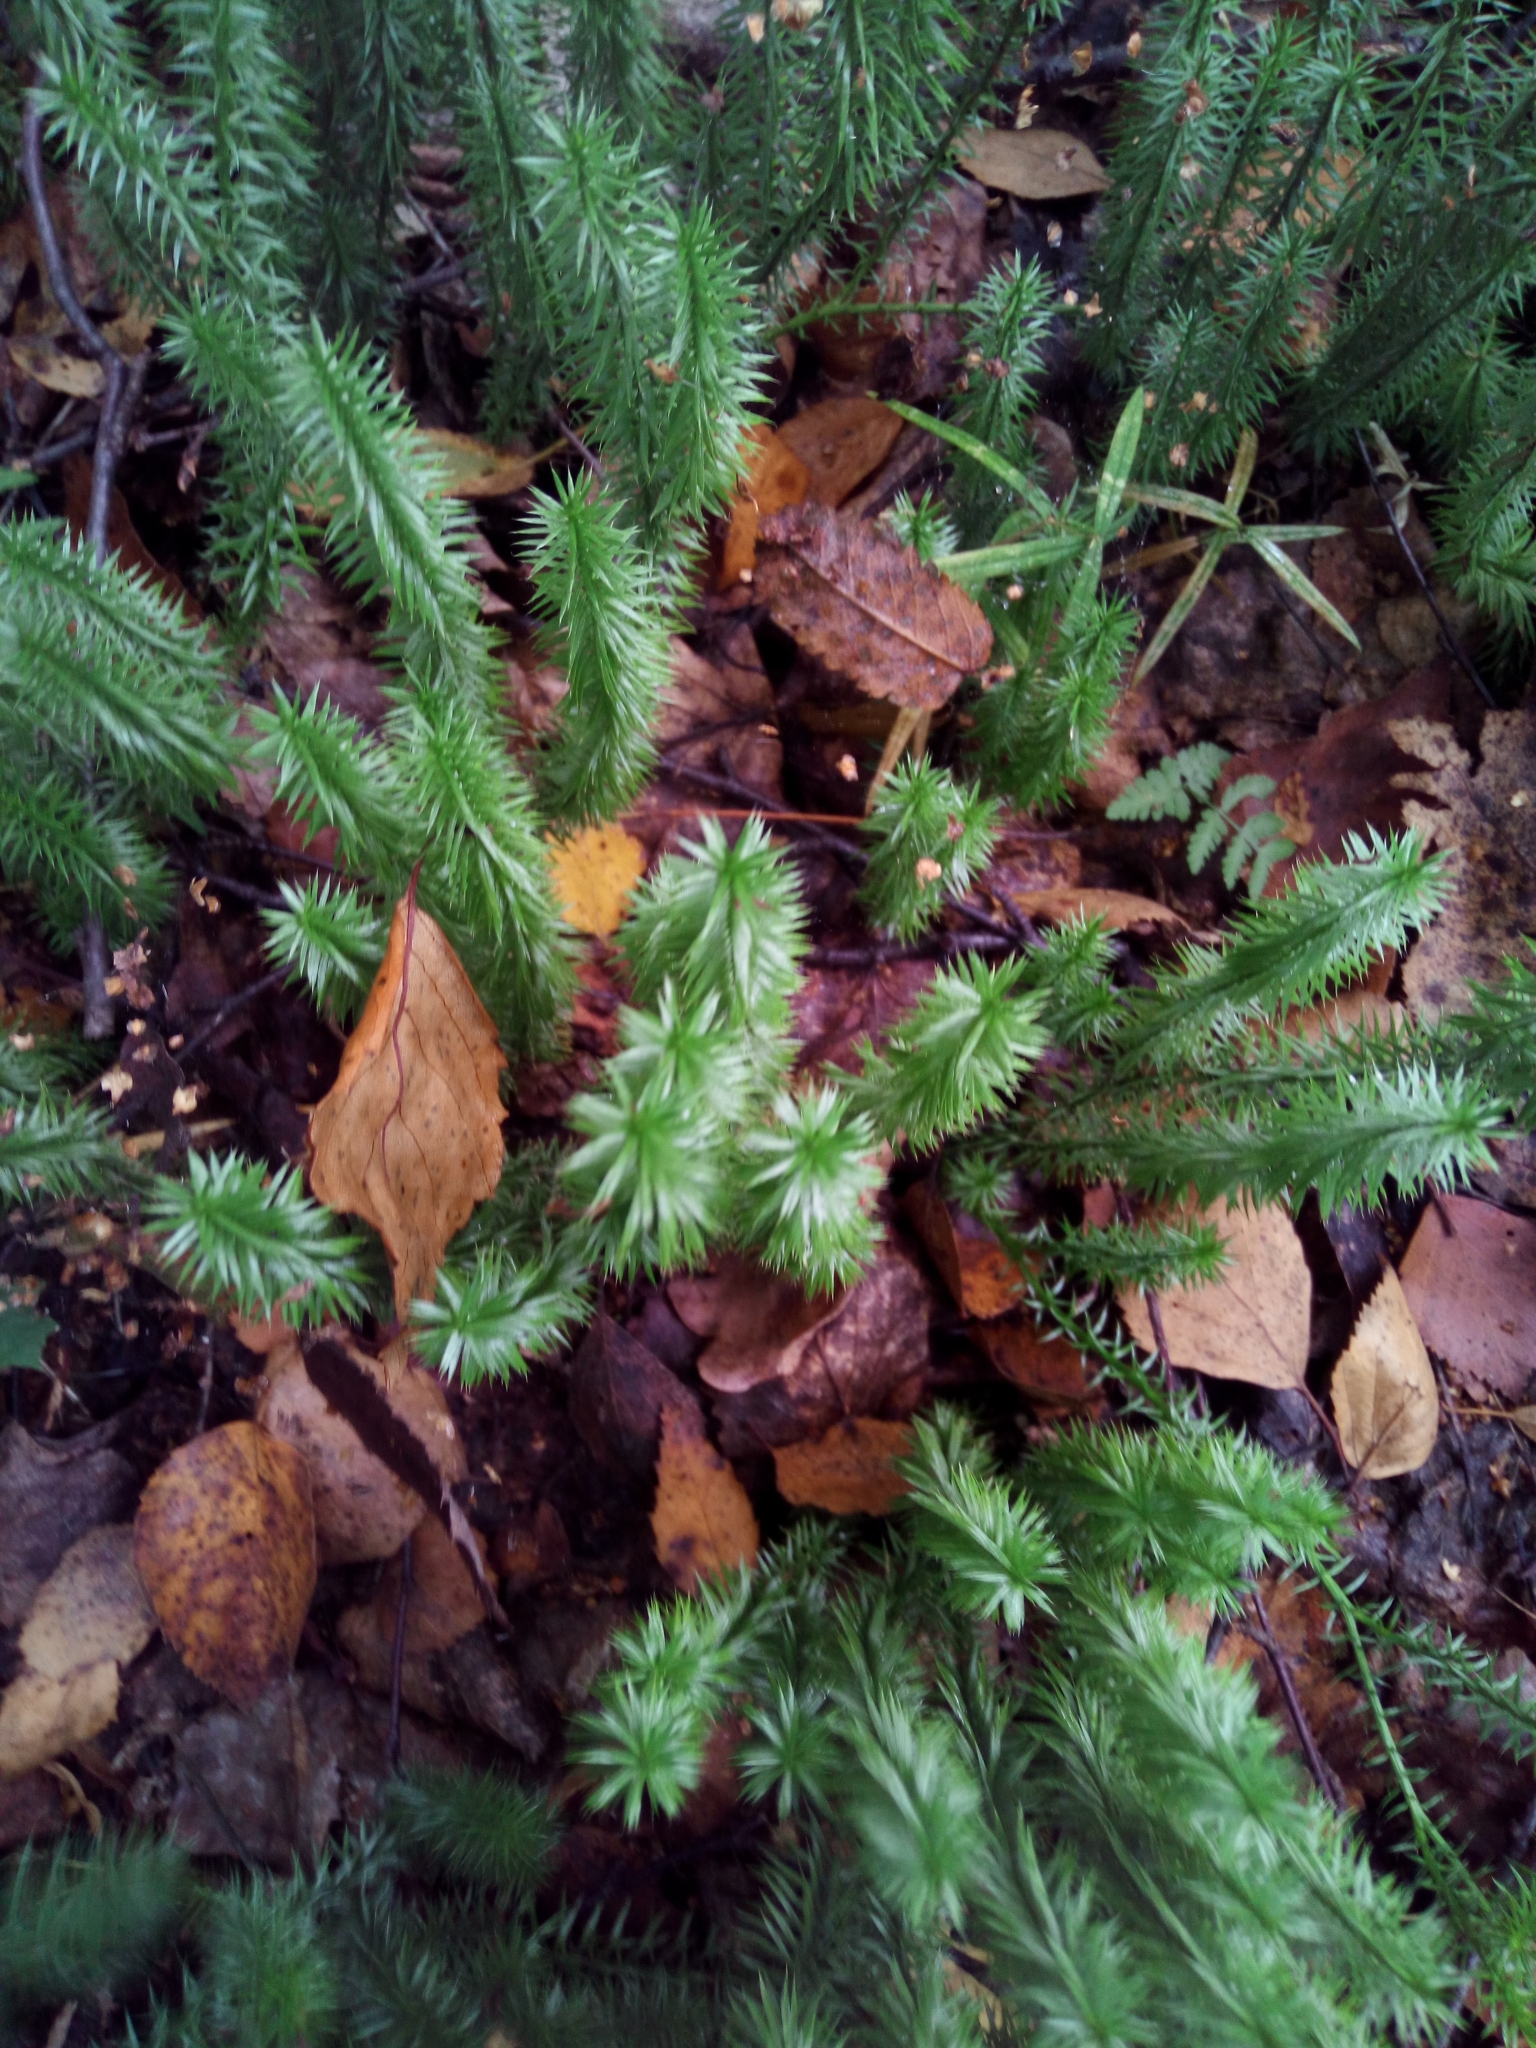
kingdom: Plantae
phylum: Tracheophyta
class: Lycopodiopsida
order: Lycopodiales
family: Lycopodiaceae
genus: Spinulum
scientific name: Spinulum annotinum
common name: Interrupted club-moss
